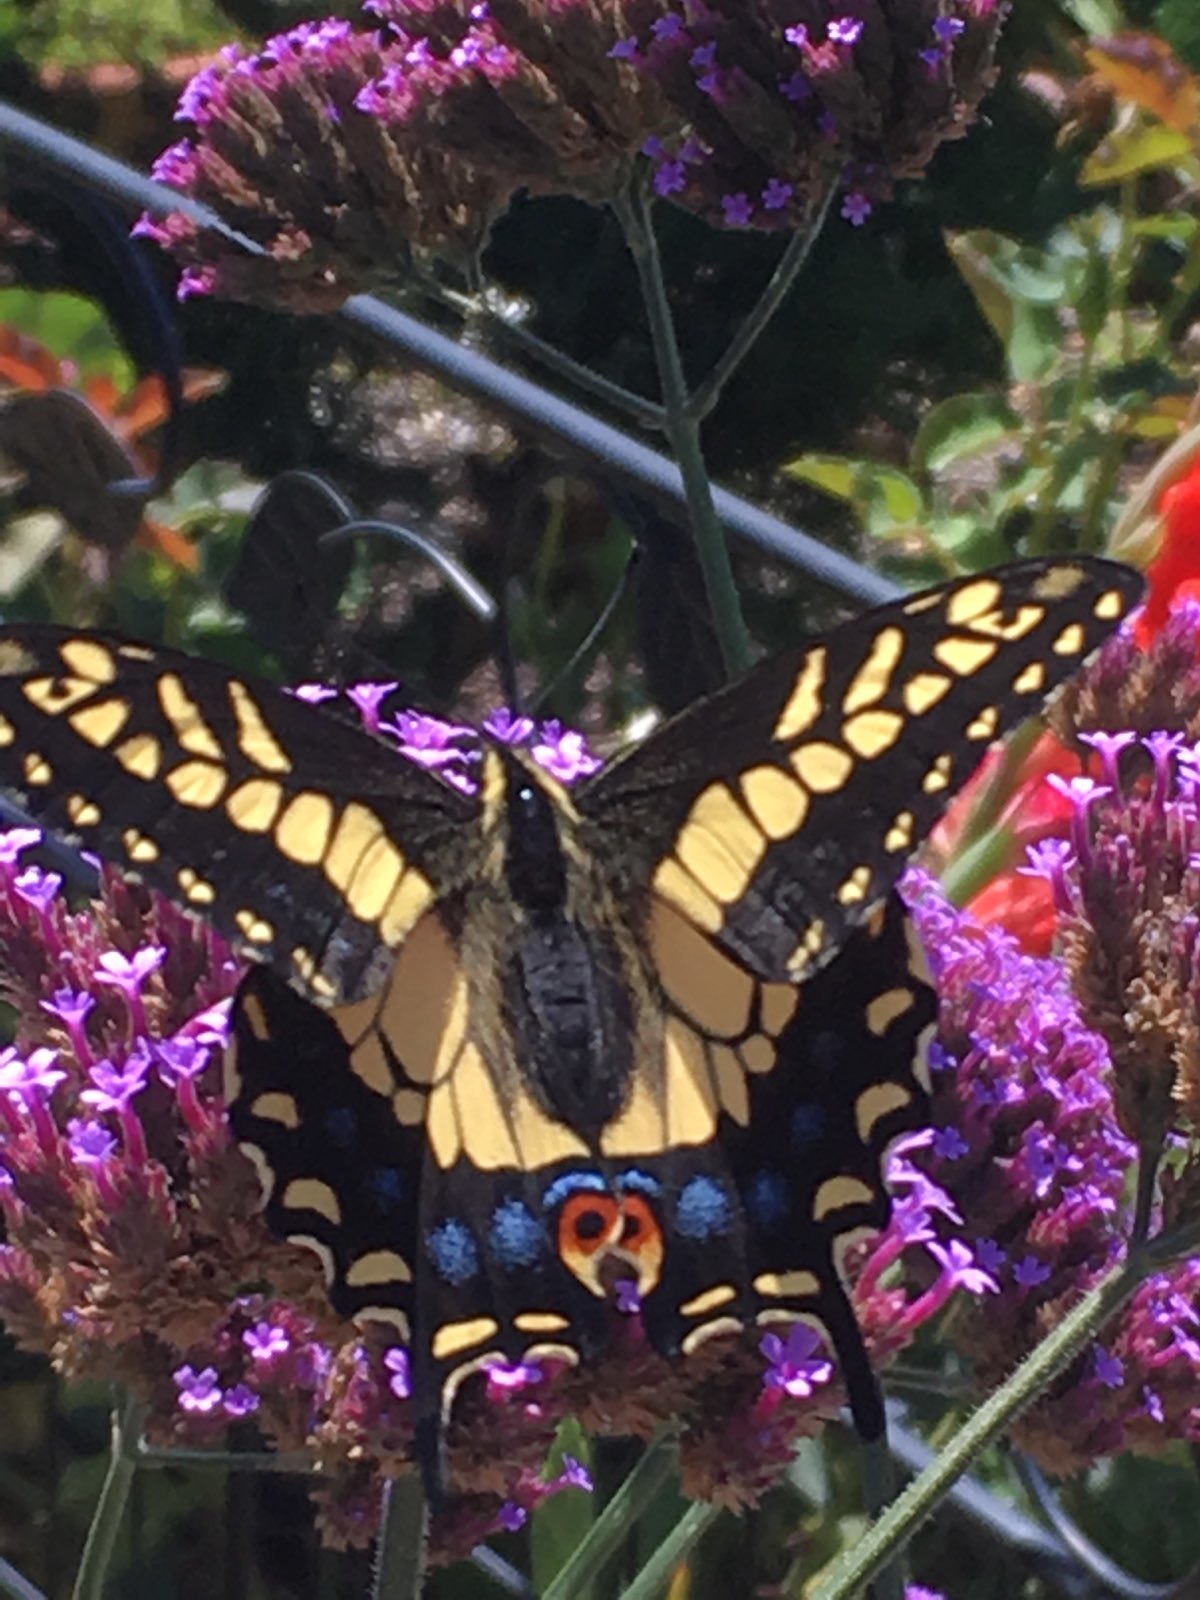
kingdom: Animalia
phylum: Arthropoda
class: Insecta
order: Lepidoptera
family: Papilionidae
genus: Papilio
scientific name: Papilio zelicaon
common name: Anise swallowtail
